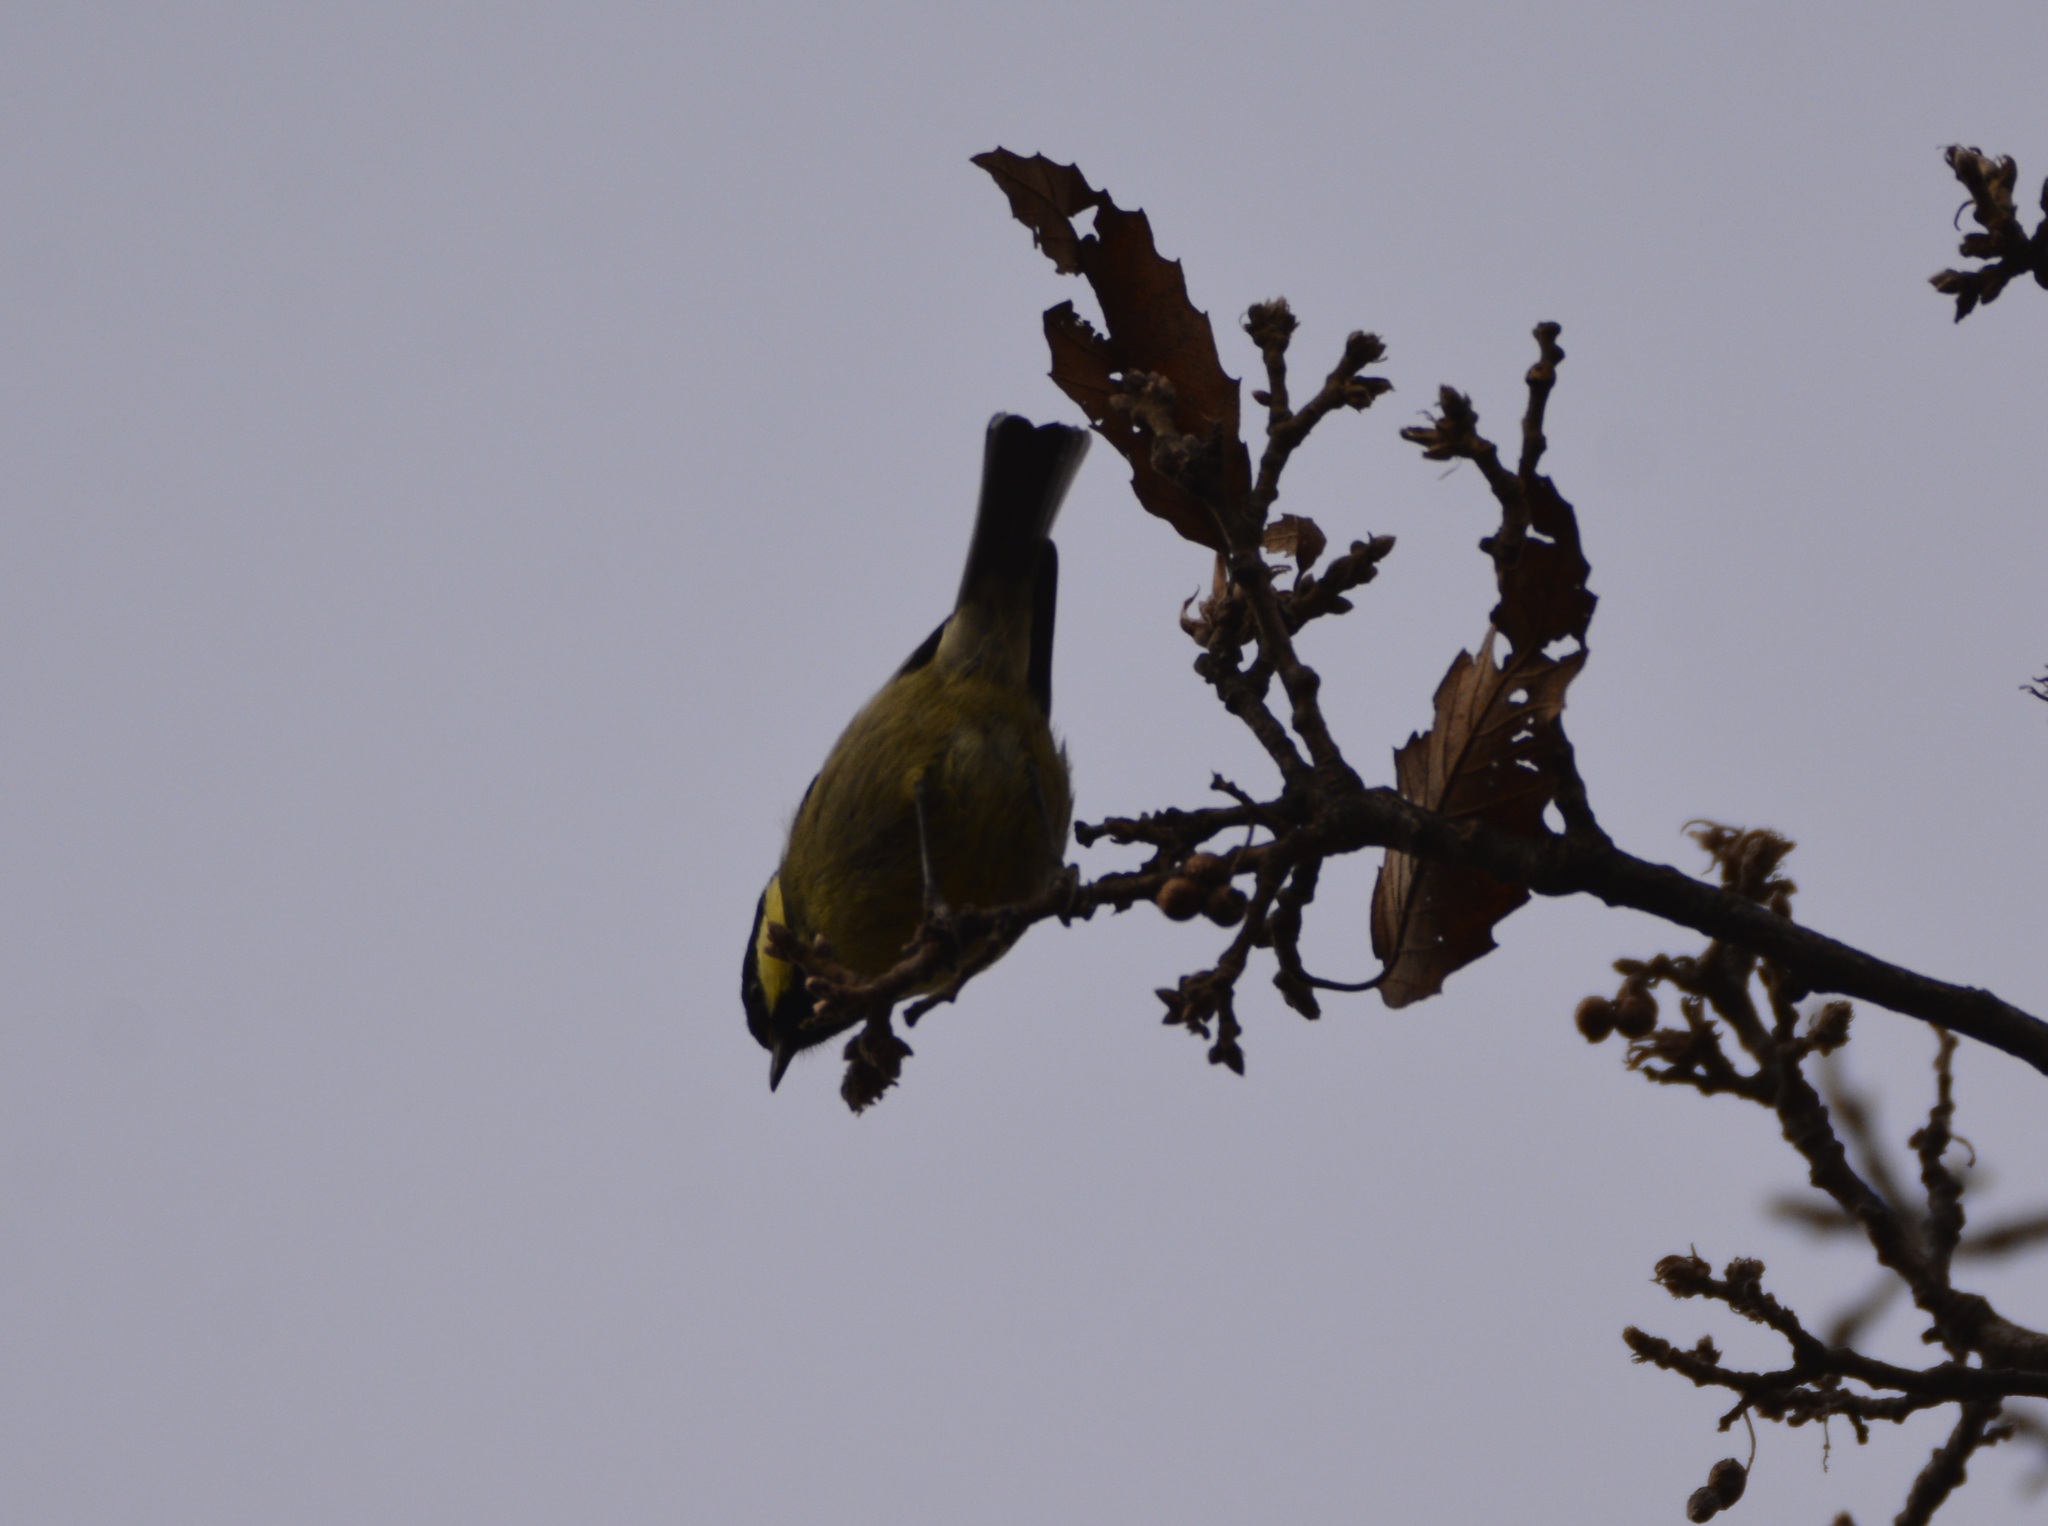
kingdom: Animalia
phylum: Chordata
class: Aves
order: Passeriformes
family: Paridae
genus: Periparus
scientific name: Periparus ater
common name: Coal tit
